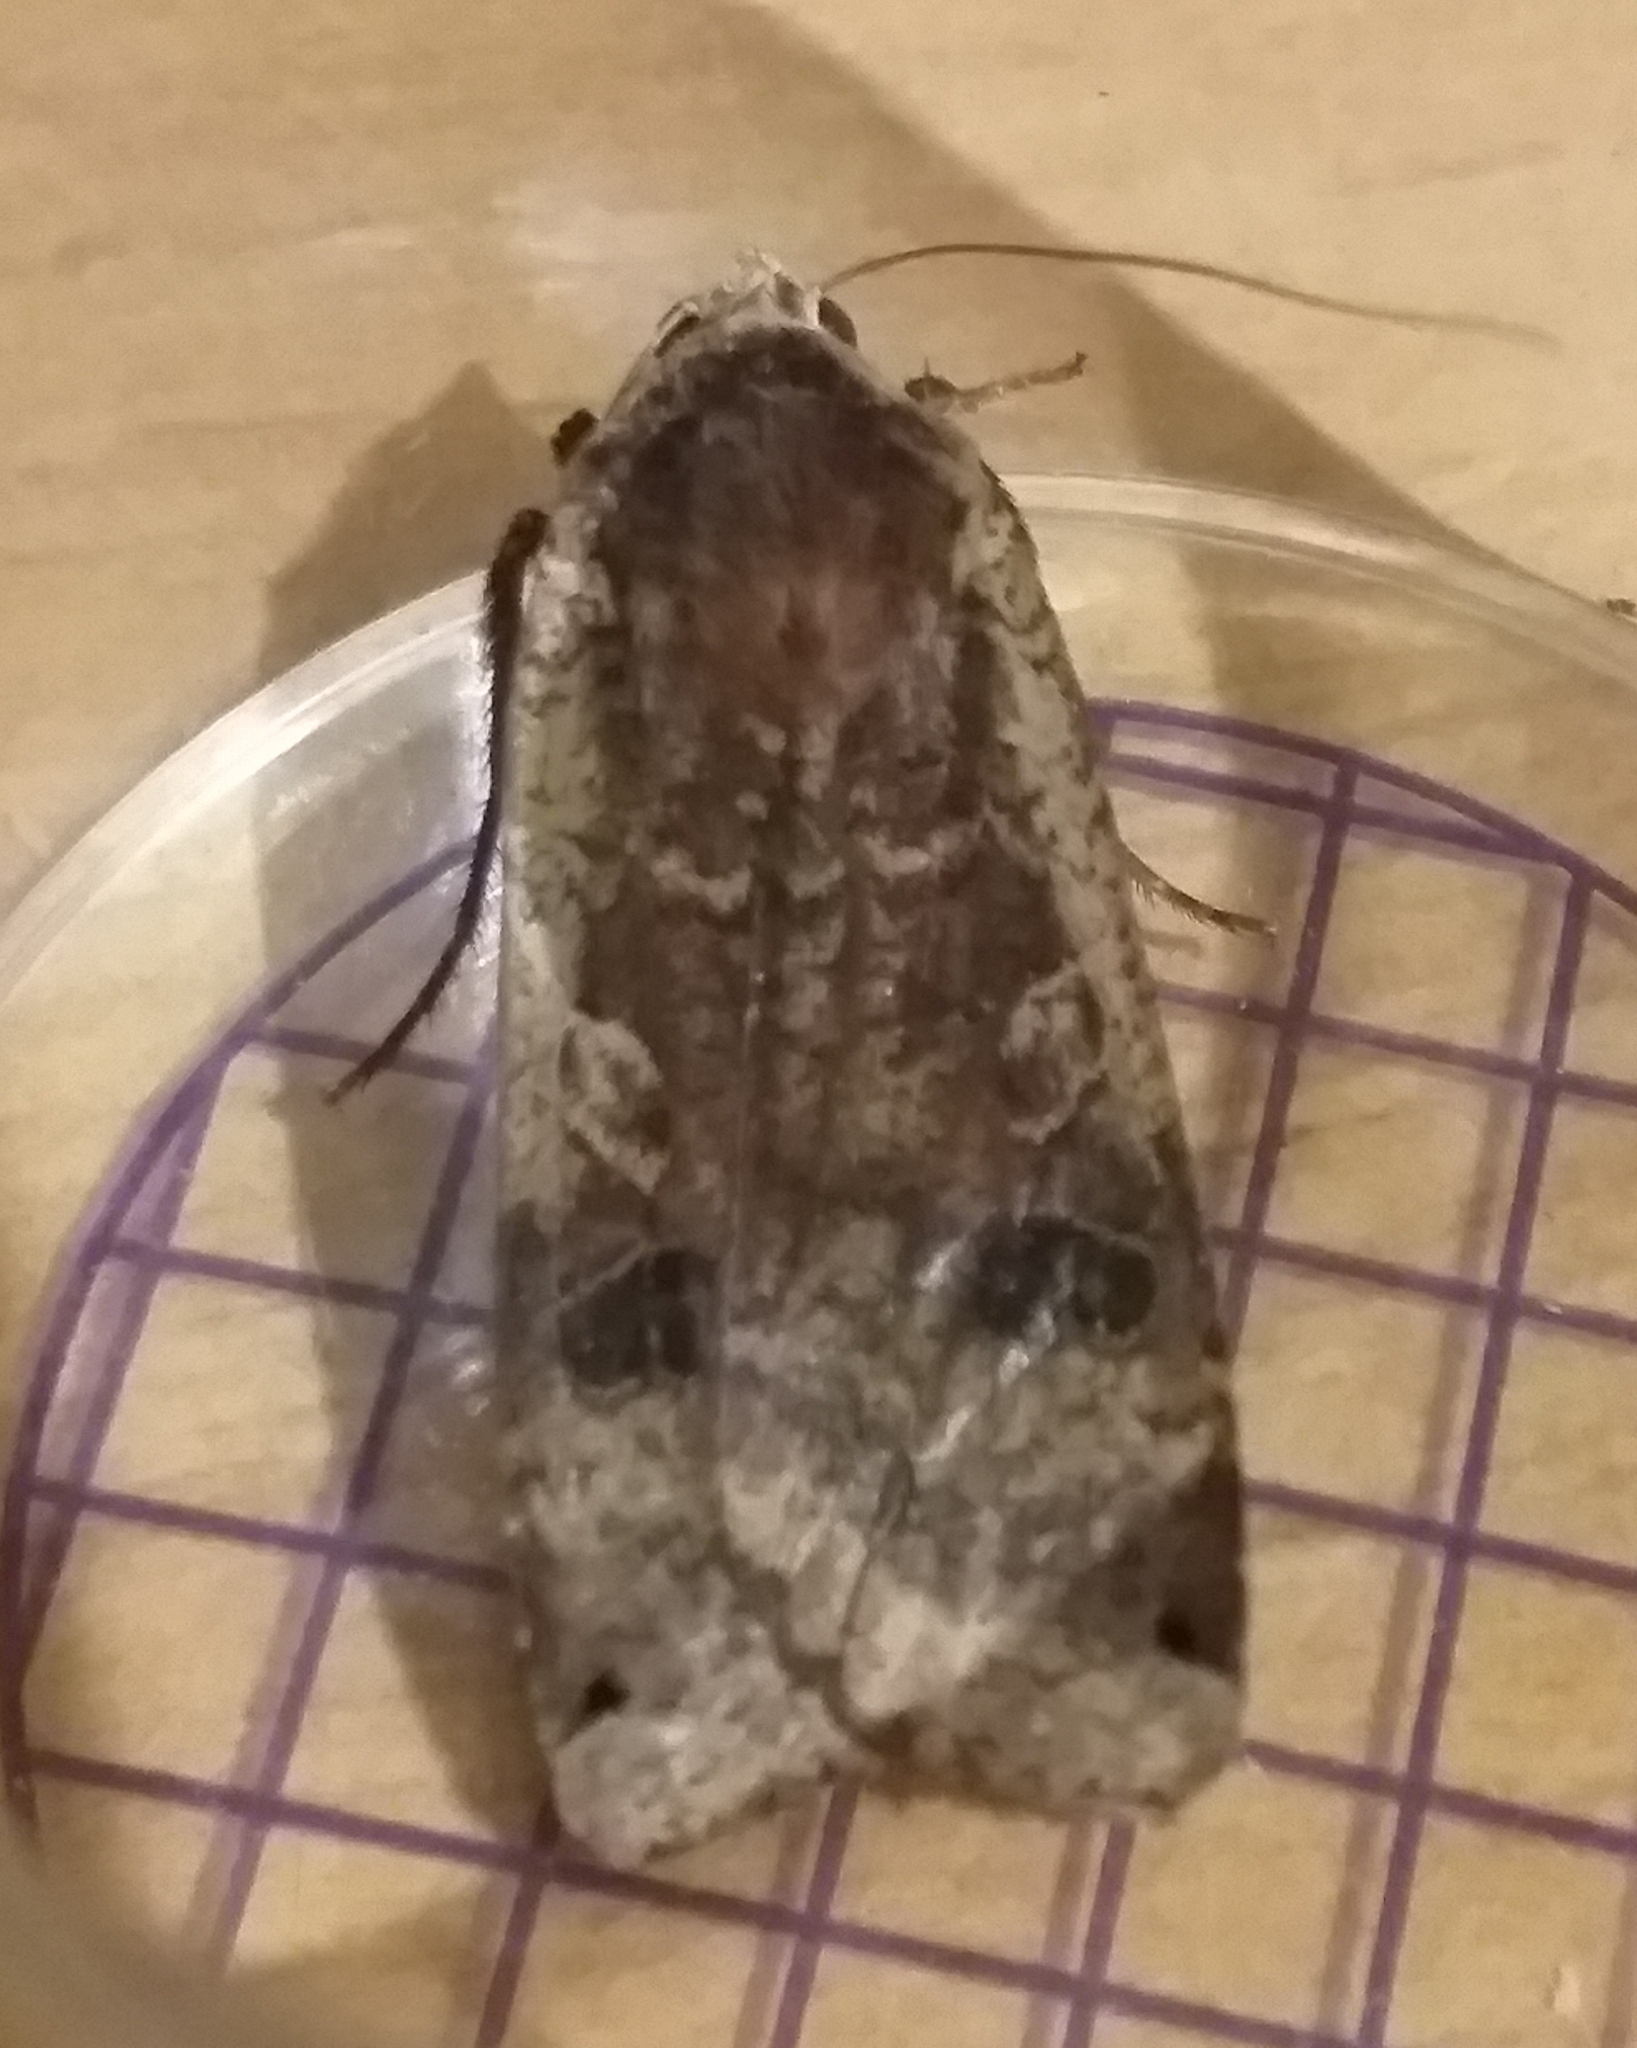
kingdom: Animalia
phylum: Arthropoda
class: Insecta
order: Lepidoptera
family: Noctuidae
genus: Noctua
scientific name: Noctua pronuba
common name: Large yellow underwing
